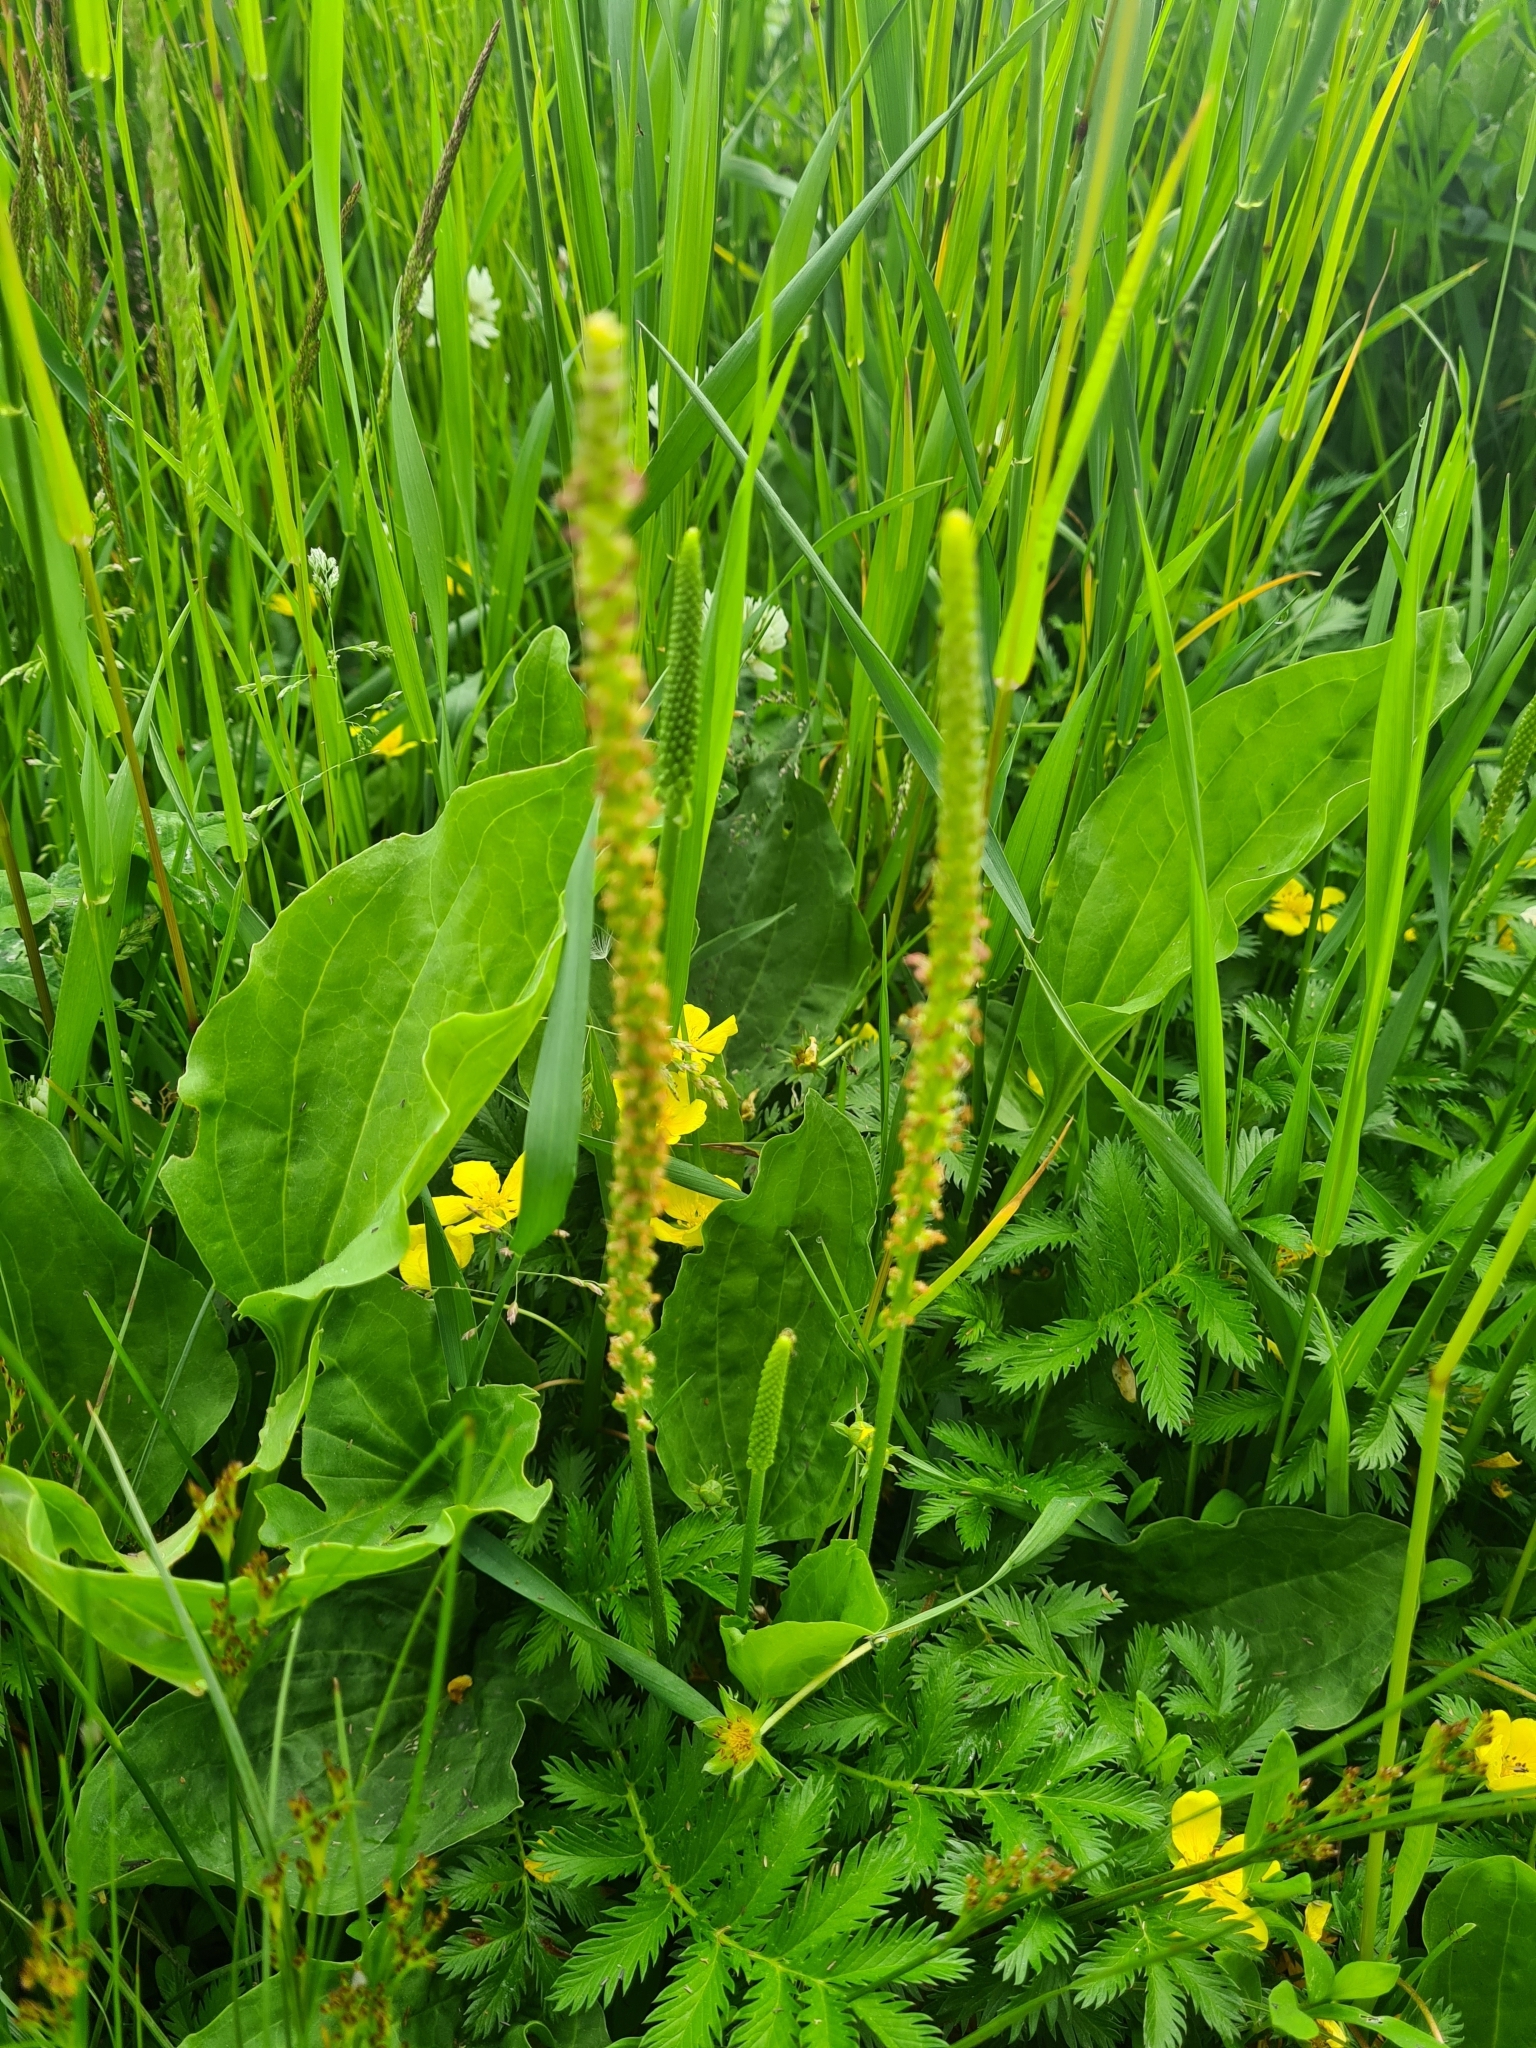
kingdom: Plantae
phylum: Tracheophyta
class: Magnoliopsida
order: Lamiales
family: Plantaginaceae
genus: Plantago
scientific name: Plantago major
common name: Common plantain
